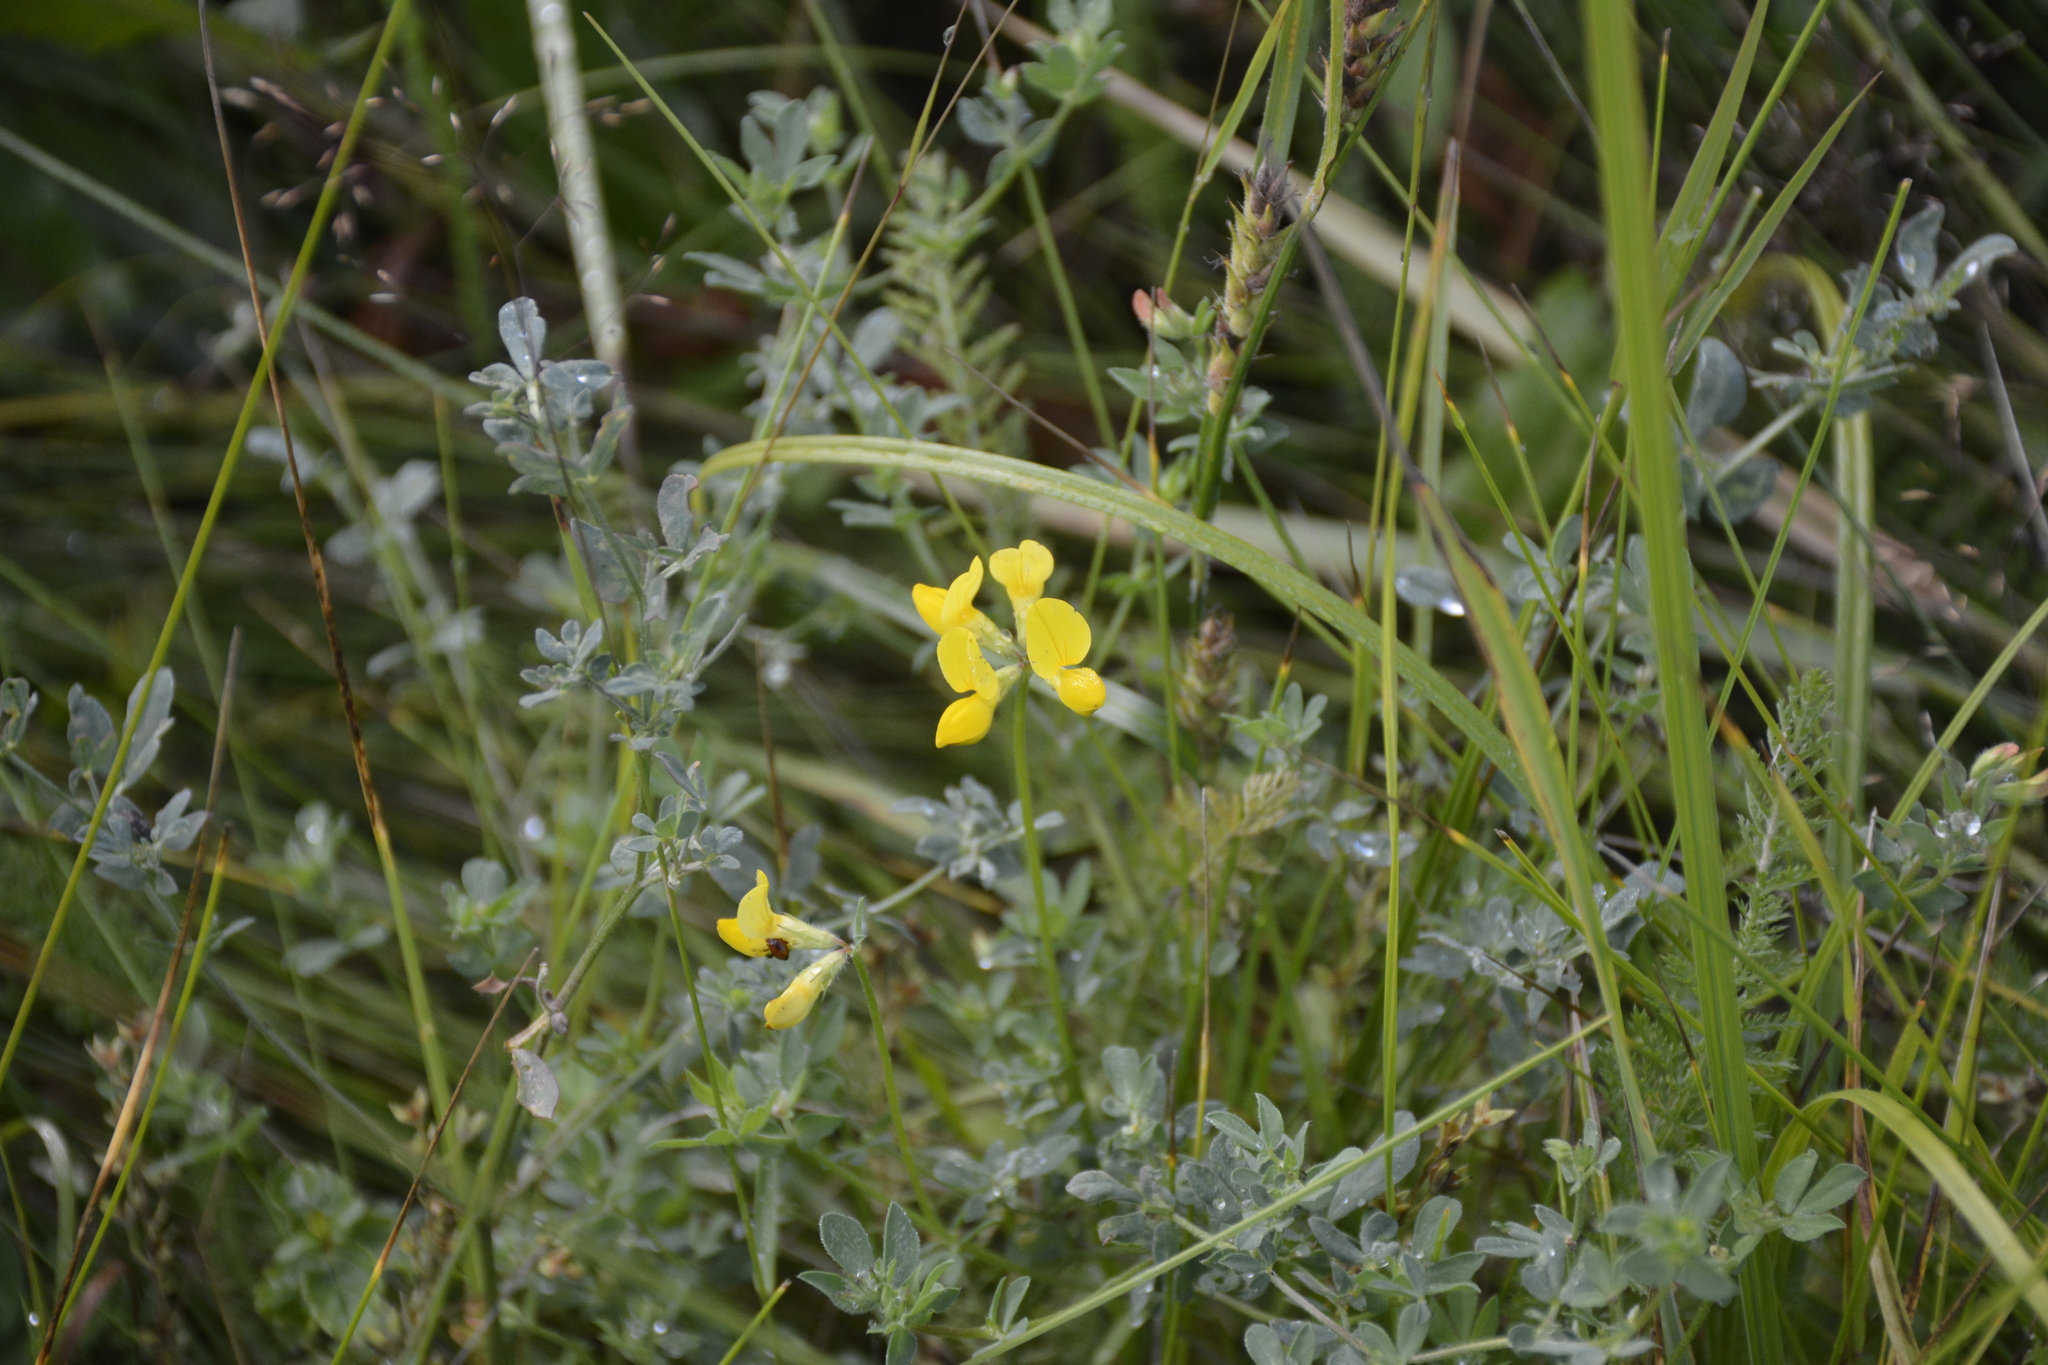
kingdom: Plantae
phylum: Tracheophyta
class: Magnoliopsida
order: Fabales
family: Fabaceae
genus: Lotus
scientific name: Lotus corniculatus
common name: Common bird's-foot-trefoil
